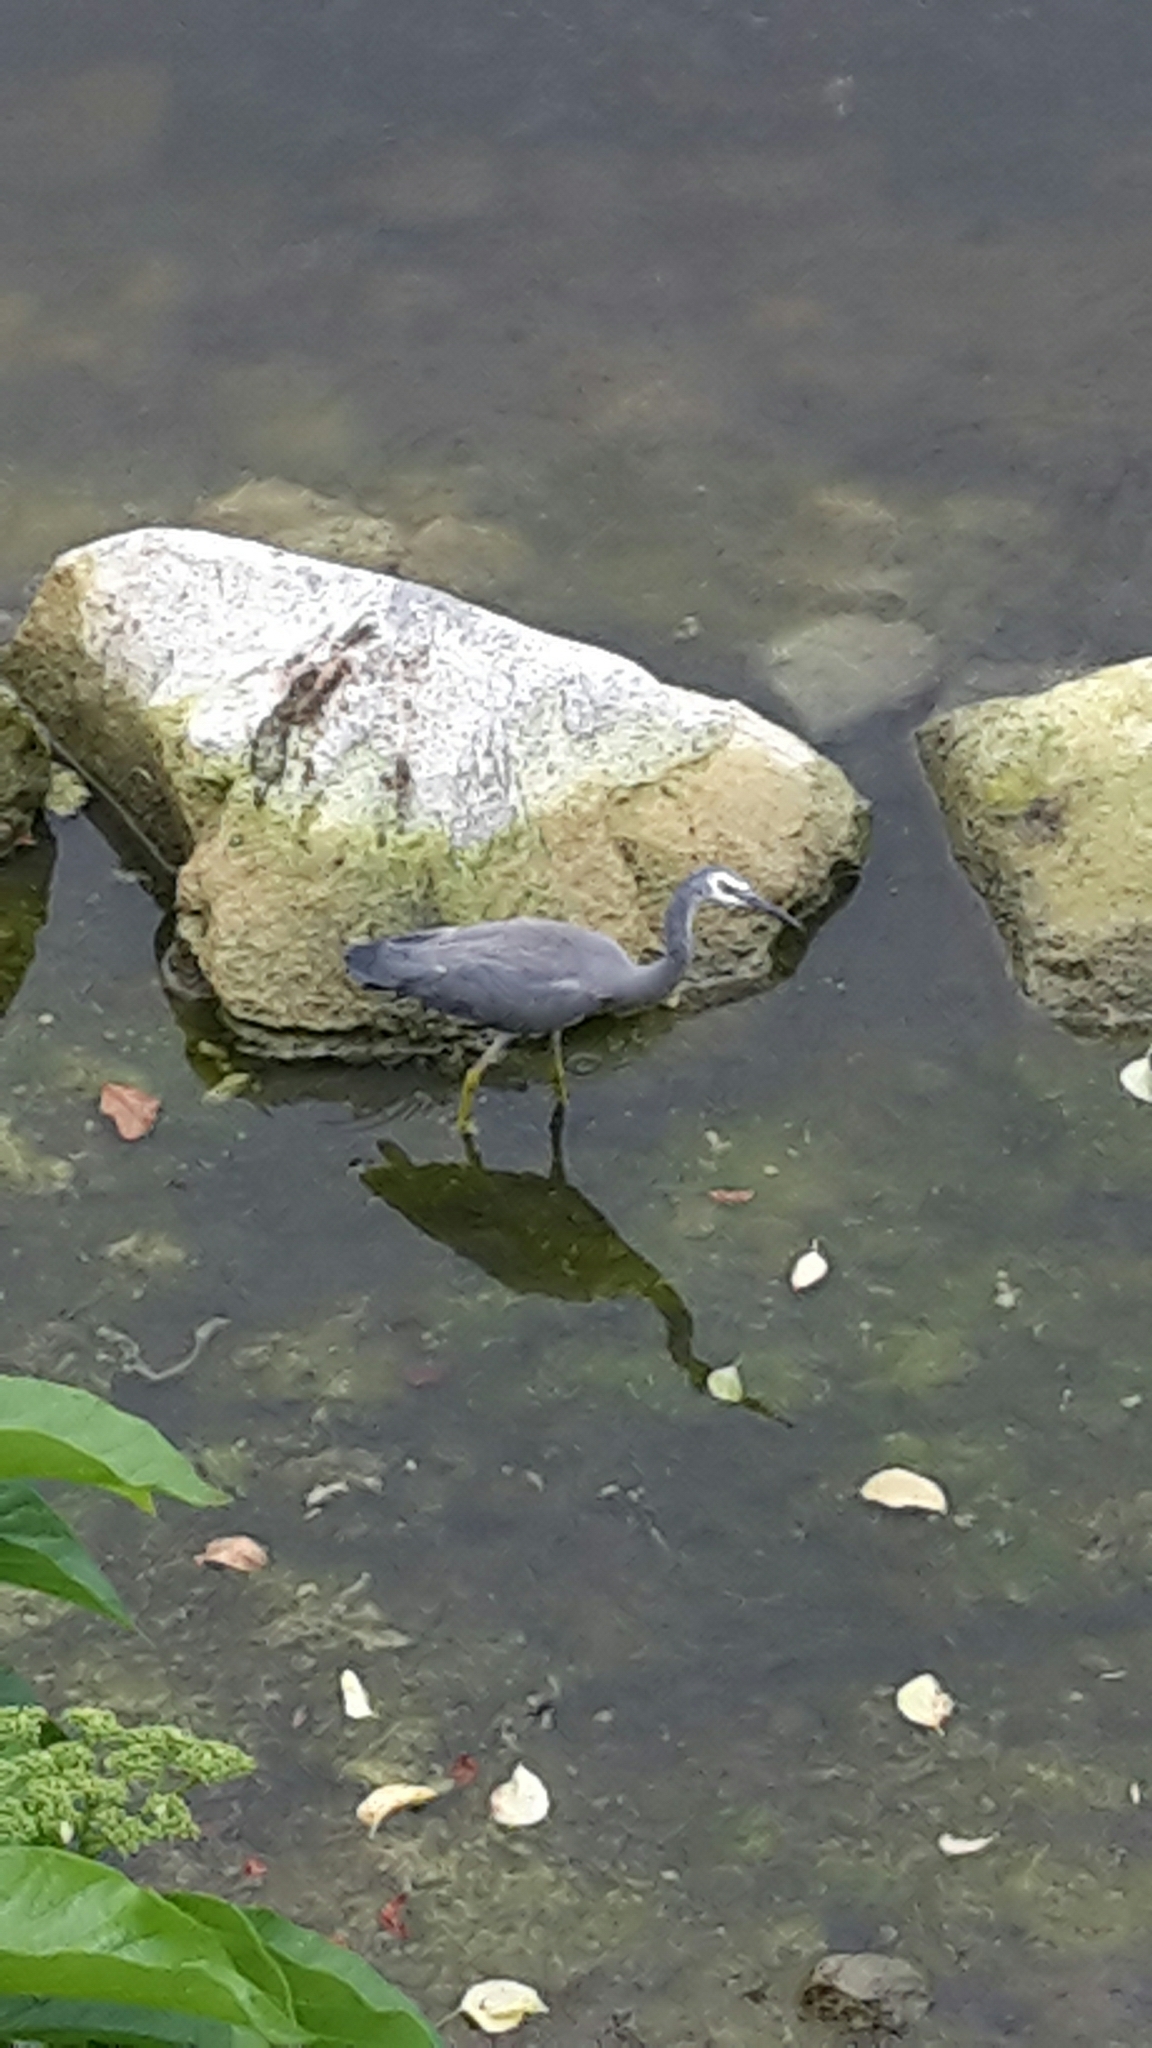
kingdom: Animalia
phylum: Chordata
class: Aves
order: Pelecaniformes
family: Ardeidae
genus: Egretta
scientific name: Egretta novaehollandiae
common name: White-faced heron
